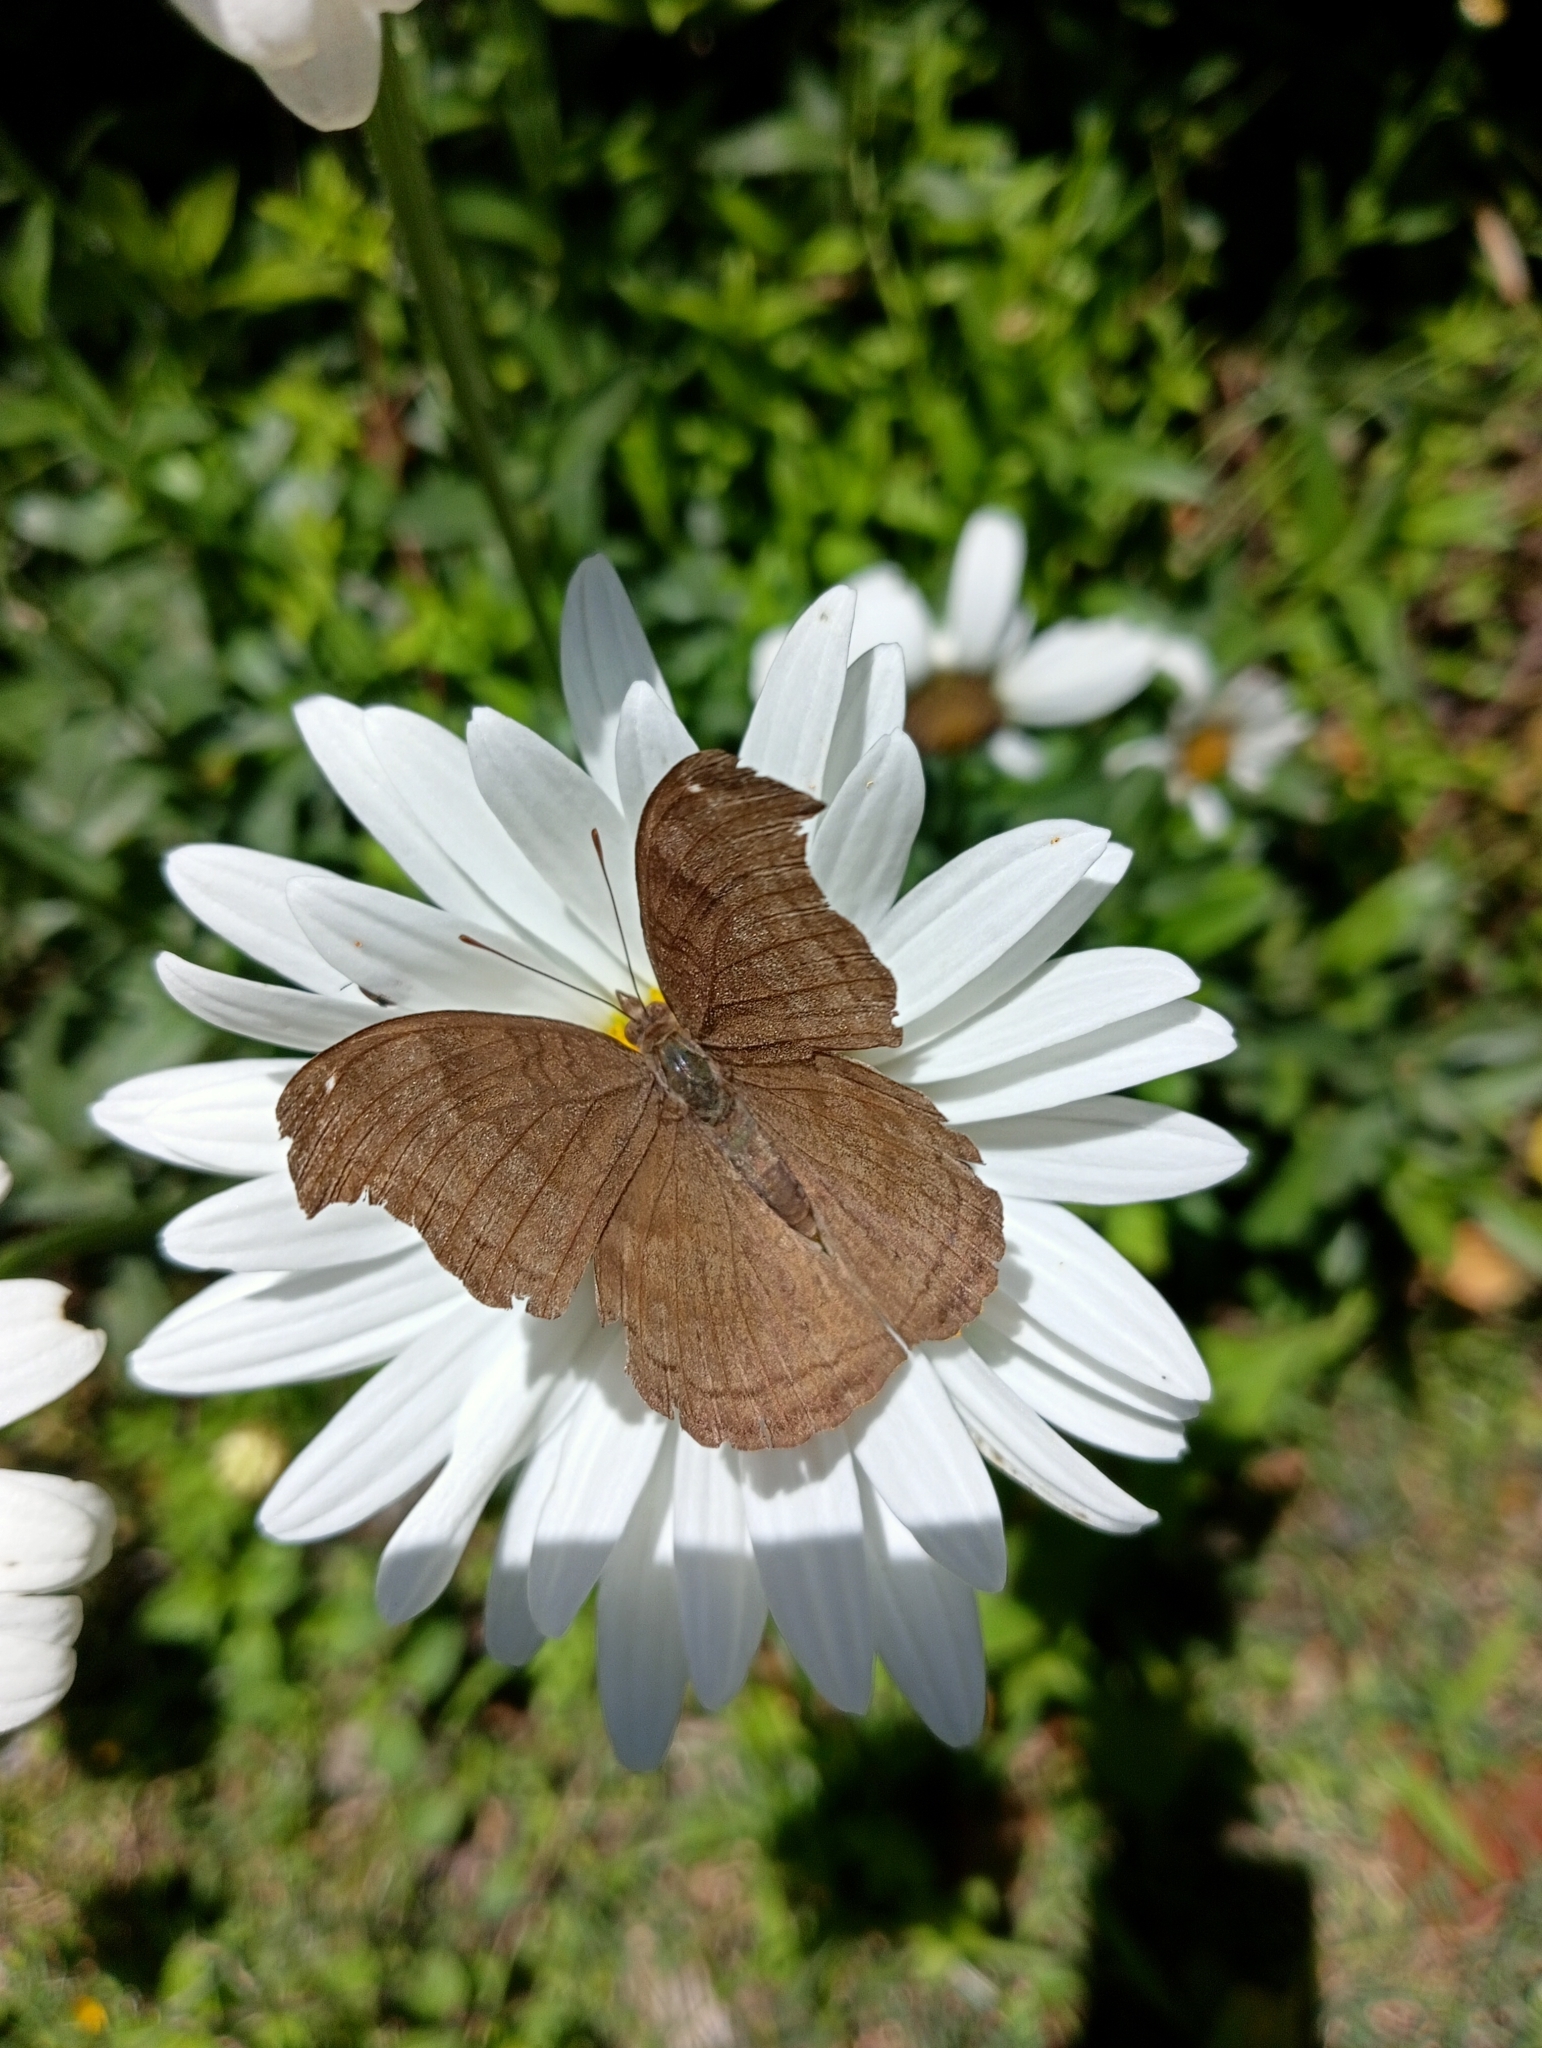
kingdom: Animalia
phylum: Arthropoda
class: Insecta
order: Lepidoptera
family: Nymphalidae
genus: Junonia
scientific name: Junonia iphita
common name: Chocolate pansy
